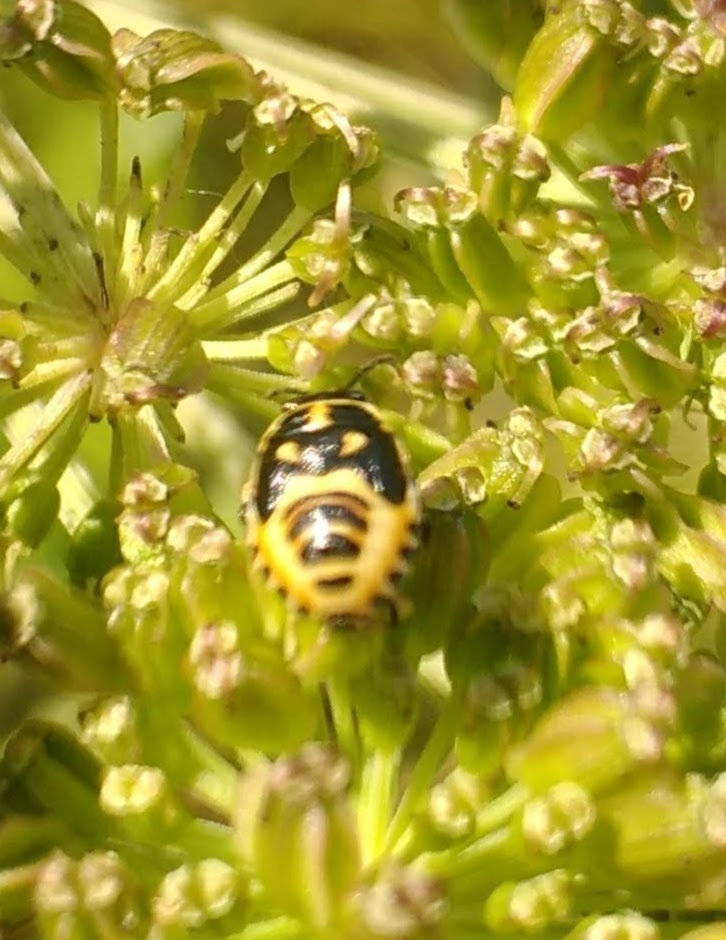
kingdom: Animalia
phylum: Arthropoda
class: Insecta
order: Hemiptera
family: Pentatomidae
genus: Eurydema
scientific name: Eurydema oleracea
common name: Cabbage bug
